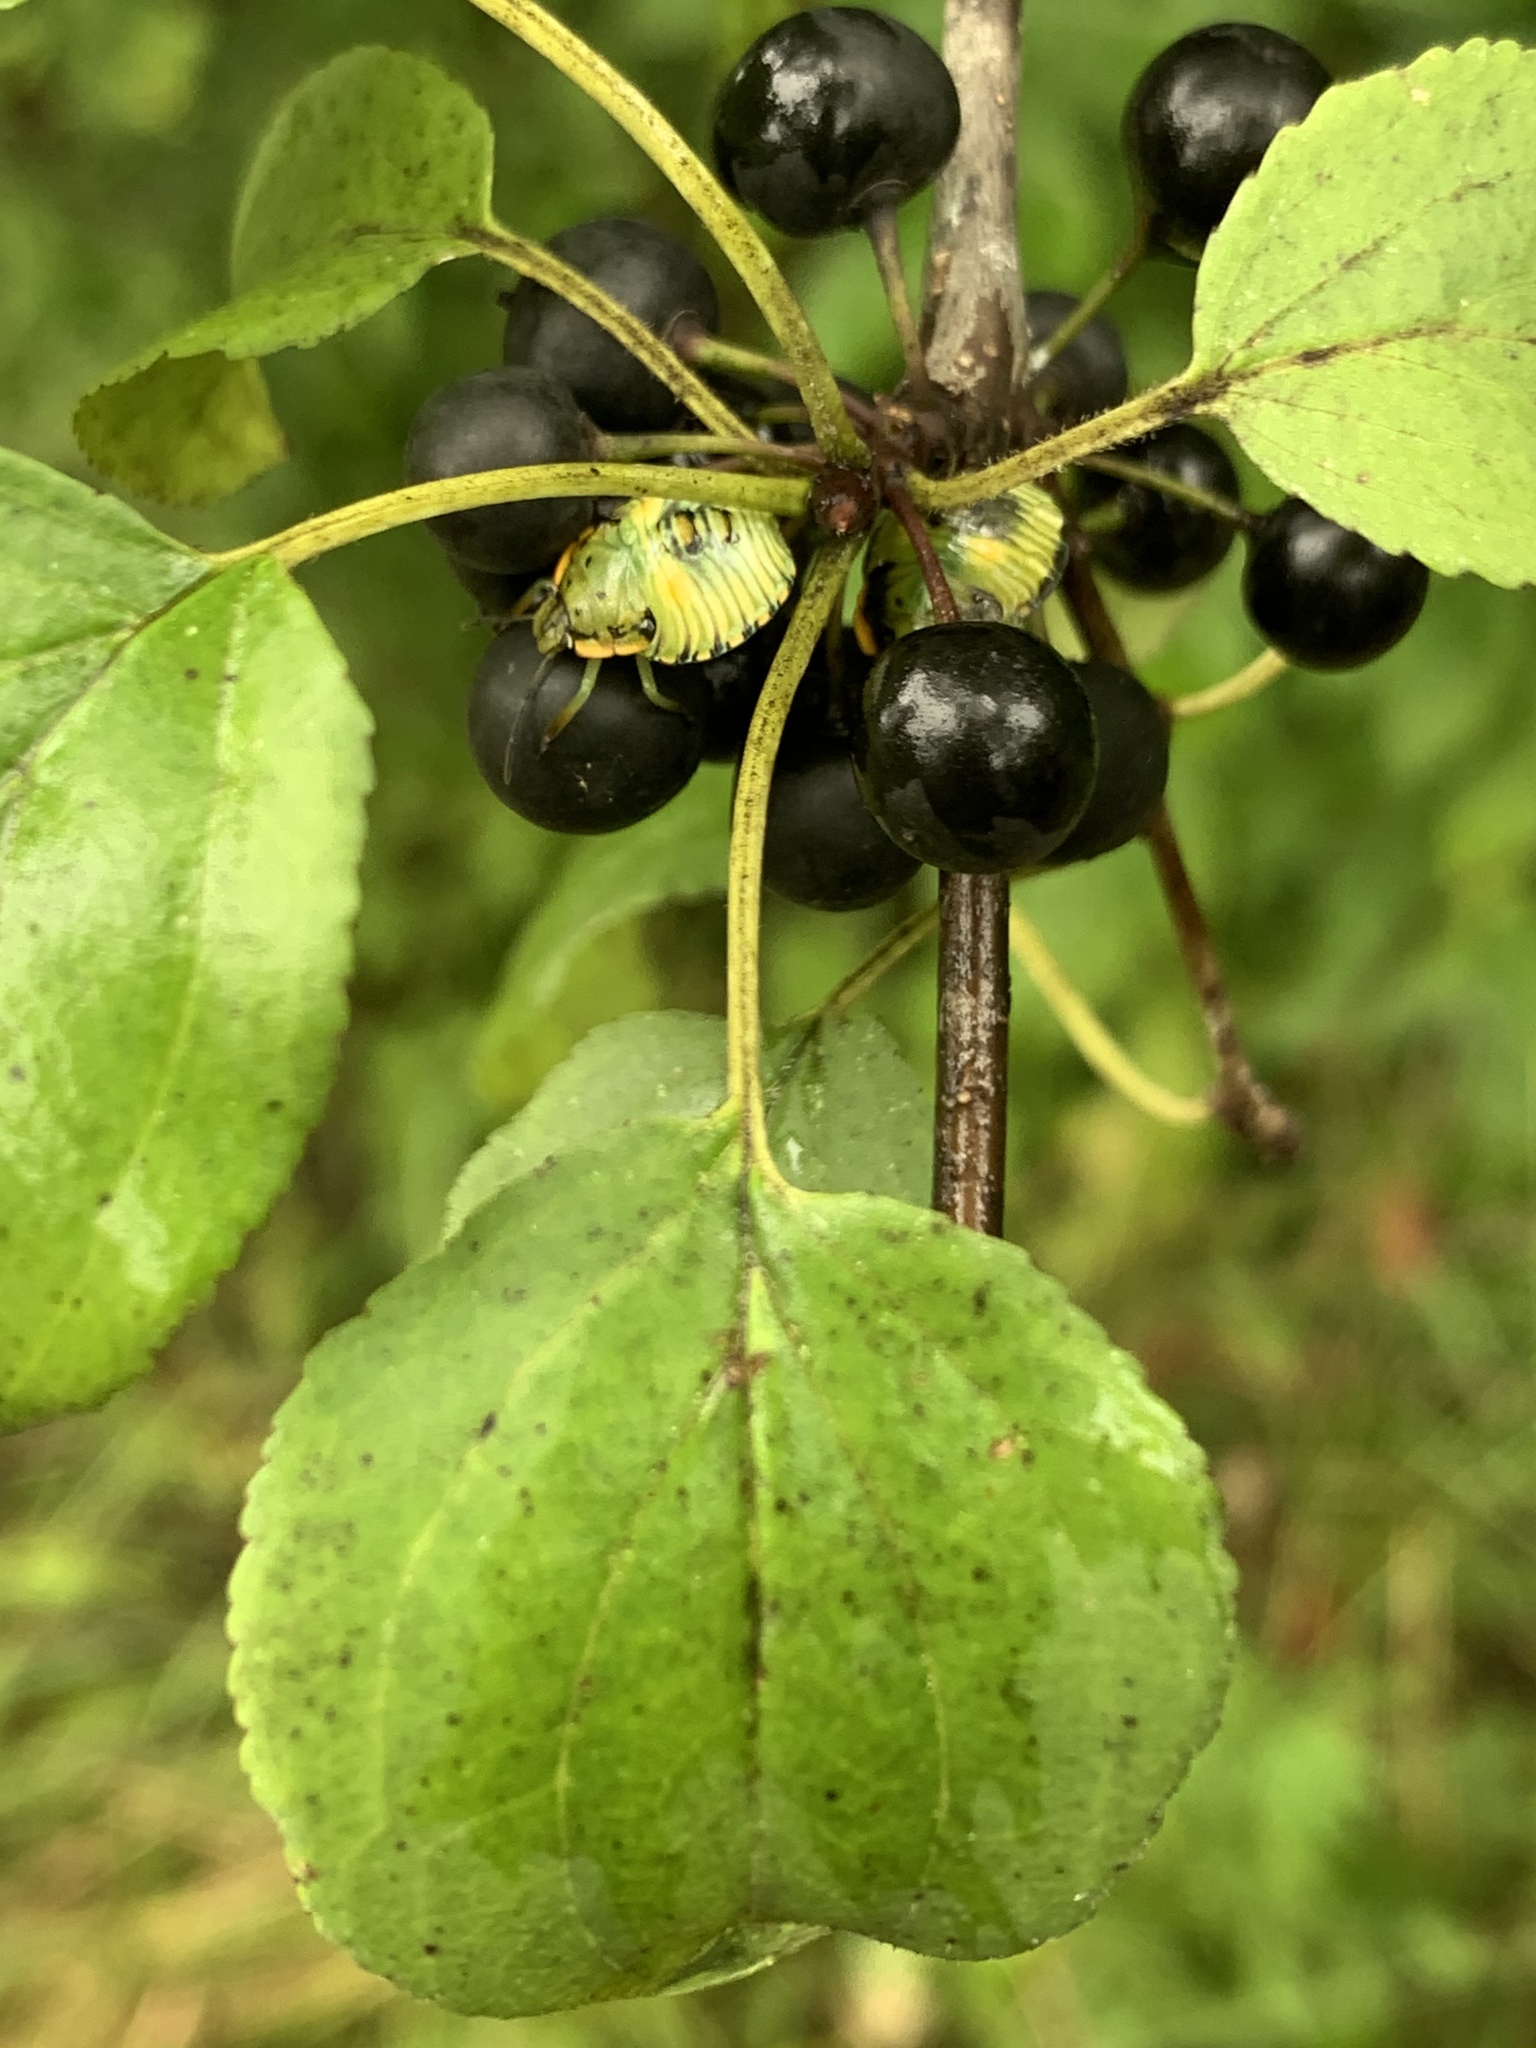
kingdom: Animalia
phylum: Arthropoda
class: Insecta
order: Hemiptera
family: Pentatomidae
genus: Chinavia
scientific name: Chinavia hilaris
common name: Green stink bug
